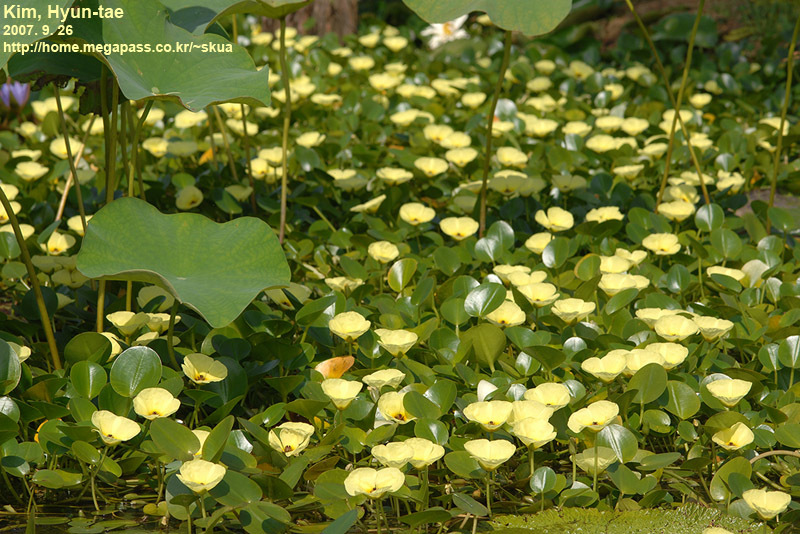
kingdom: Plantae
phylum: Tracheophyta
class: Liliopsida
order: Alismatales
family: Alismataceae
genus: Hydrocleys
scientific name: Hydrocleys nymphoides
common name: Water-poppy
